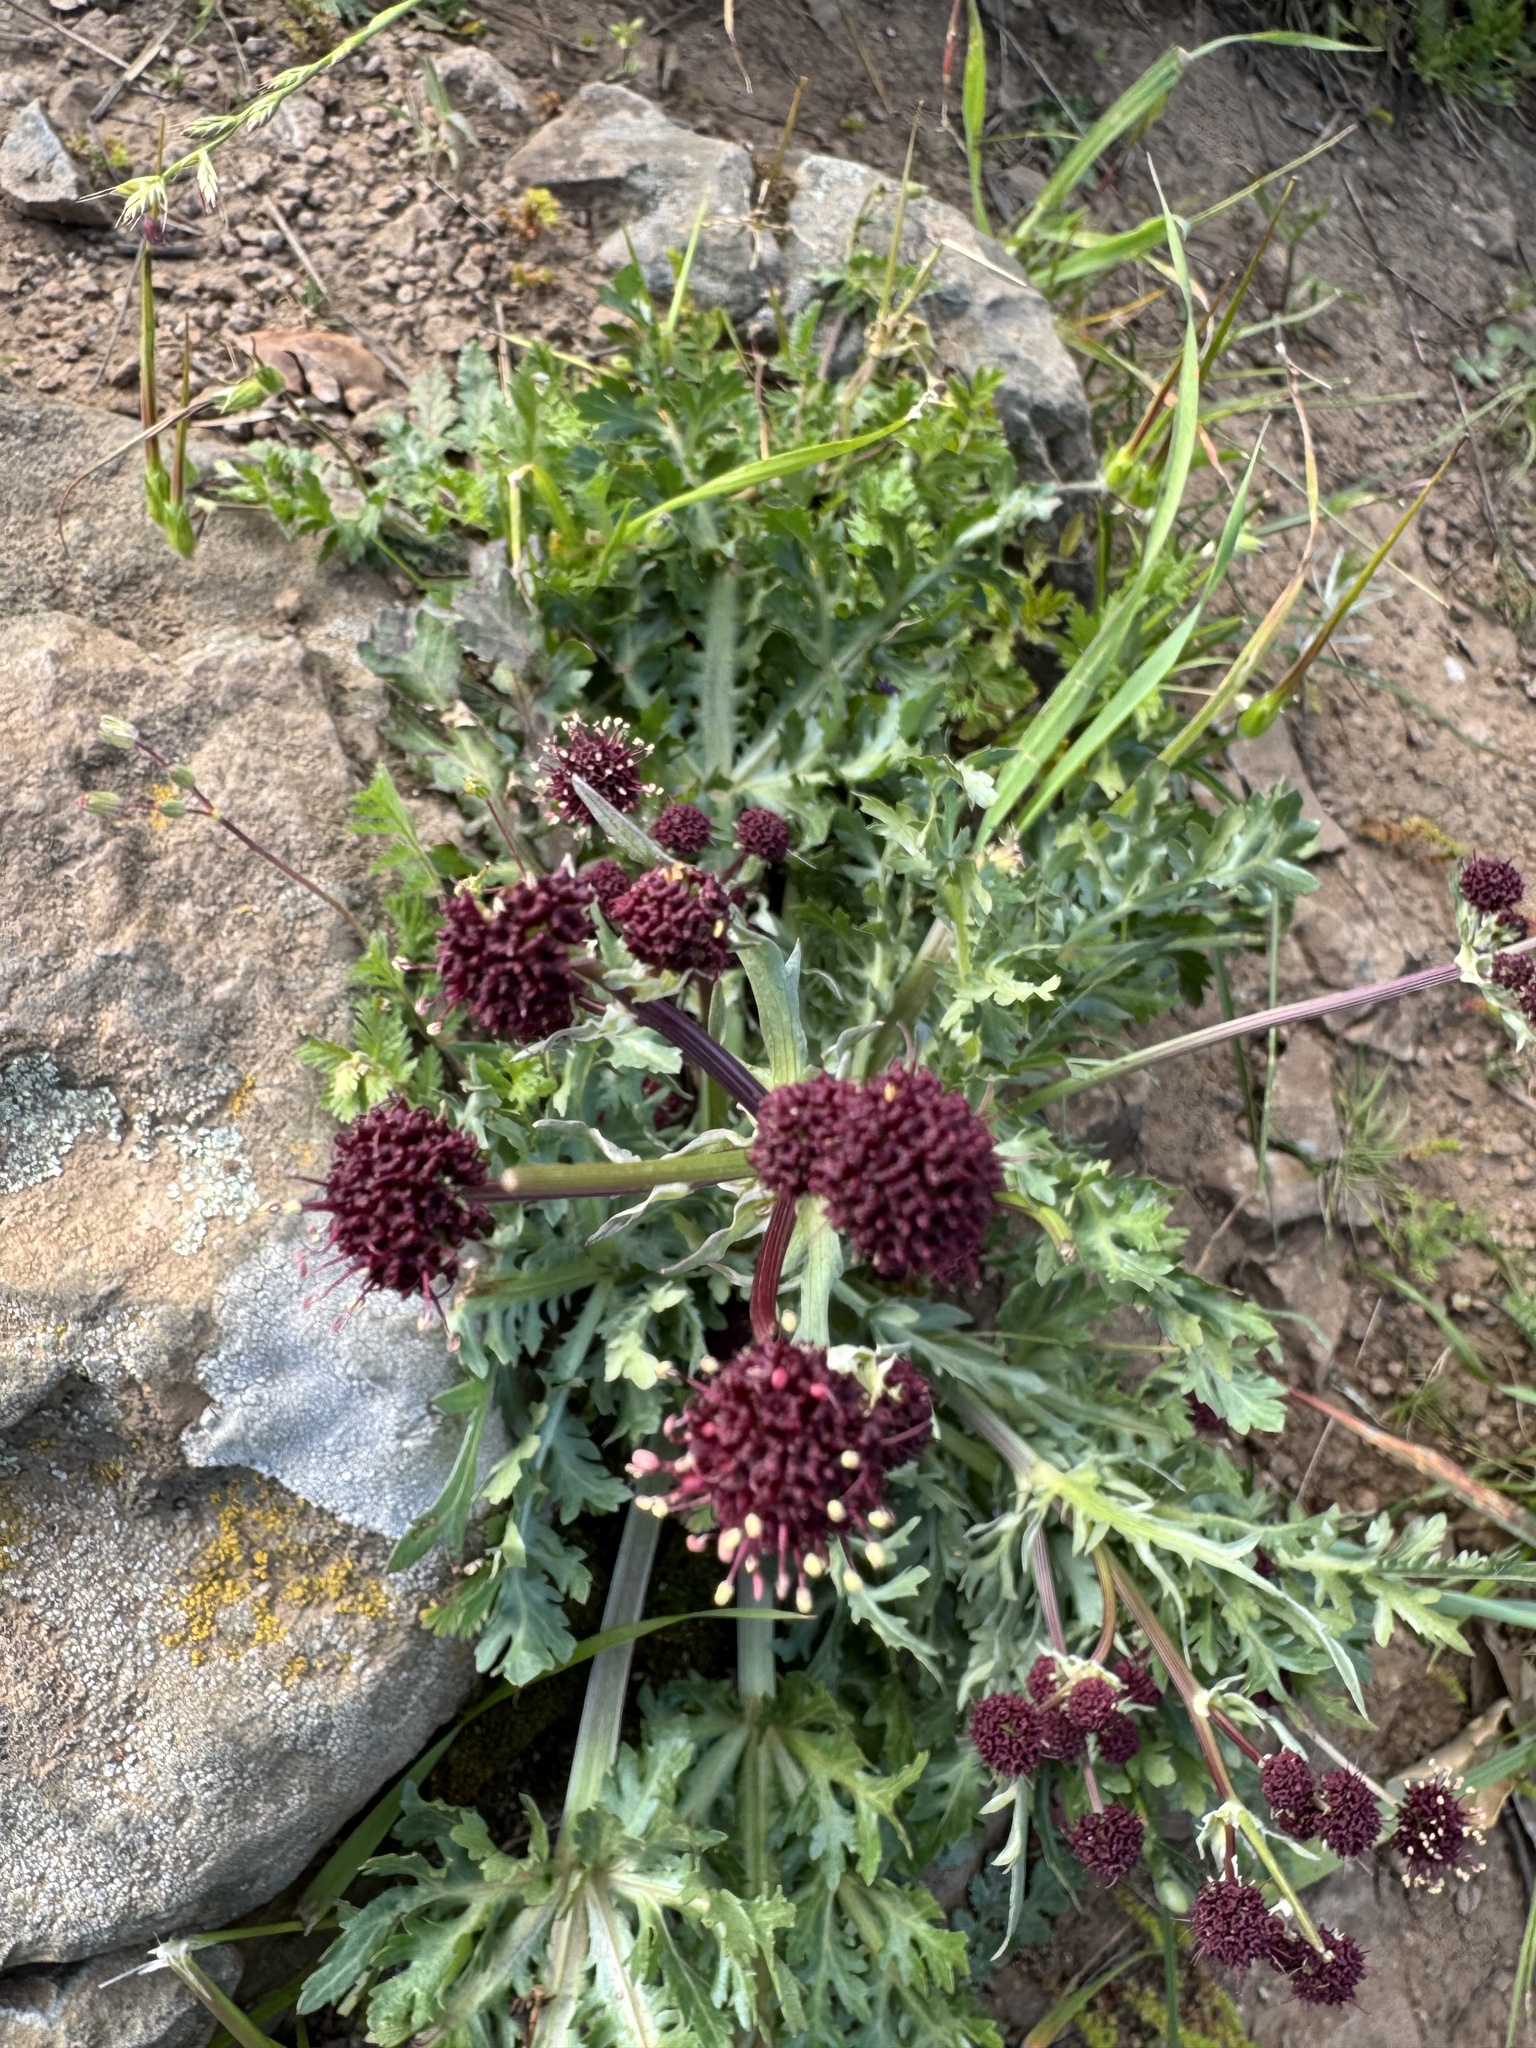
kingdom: Plantae
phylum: Tracheophyta
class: Magnoliopsida
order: Apiales
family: Apiaceae
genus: Sanicula
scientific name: Sanicula bipinnatifida
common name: Shoe-buttons
